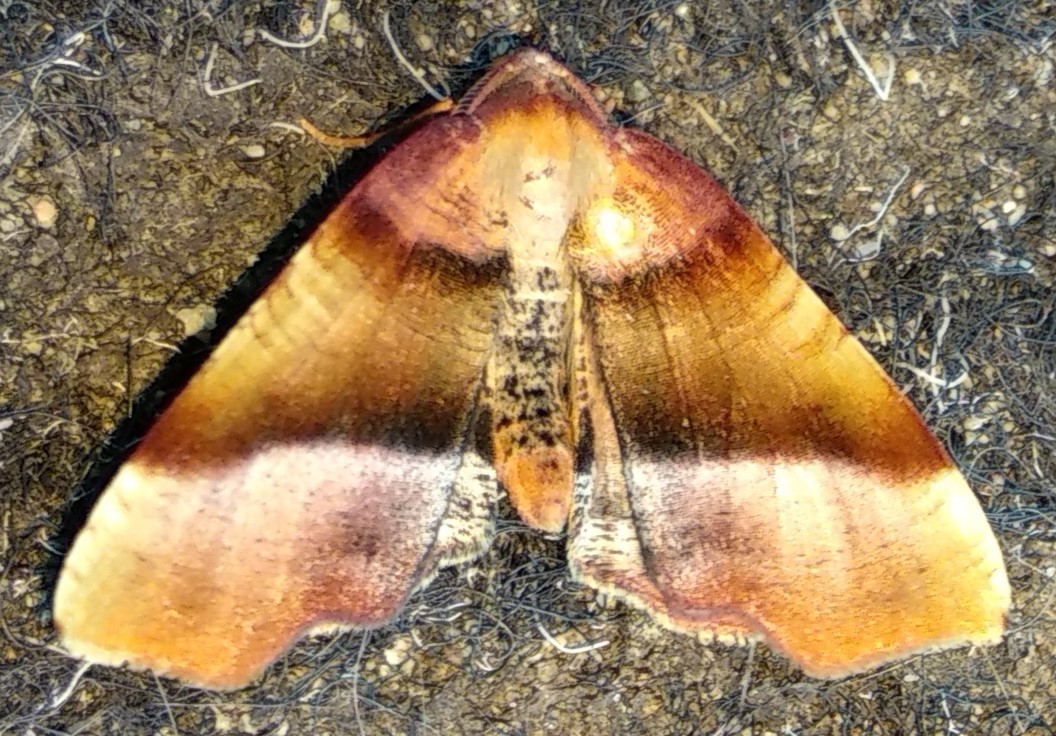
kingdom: Animalia
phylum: Arthropoda
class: Insecta
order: Lepidoptera
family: Geometridae
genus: Plagodis
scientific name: Plagodis phlogosaria
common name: Straight-lined plagodis
